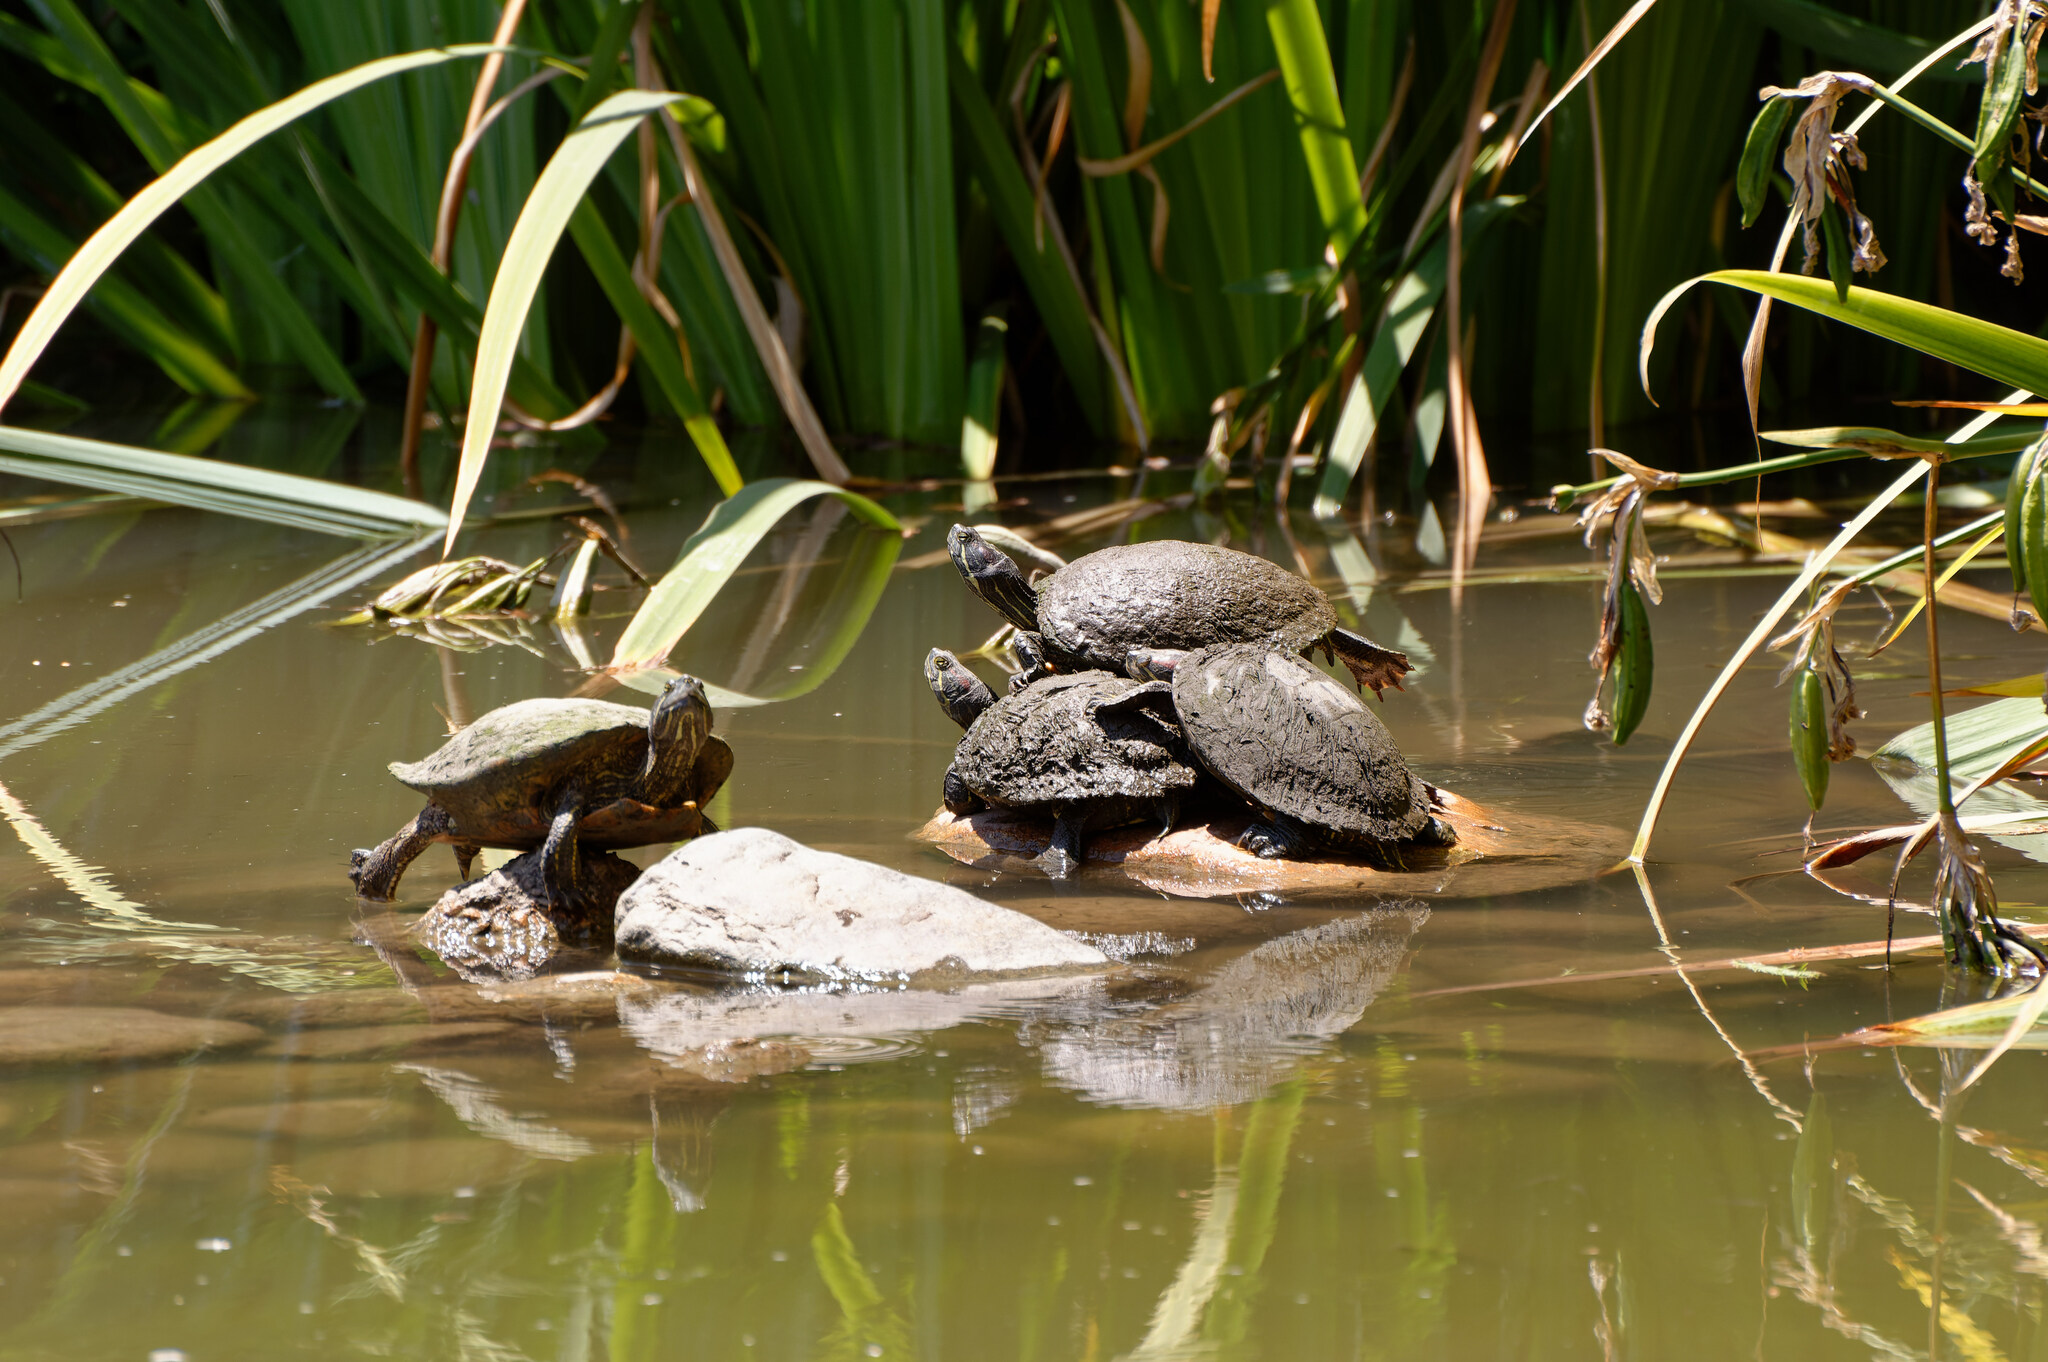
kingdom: Animalia
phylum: Chordata
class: Testudines
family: Emydidae
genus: Trachemys
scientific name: Trachemys scripta
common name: Slider
